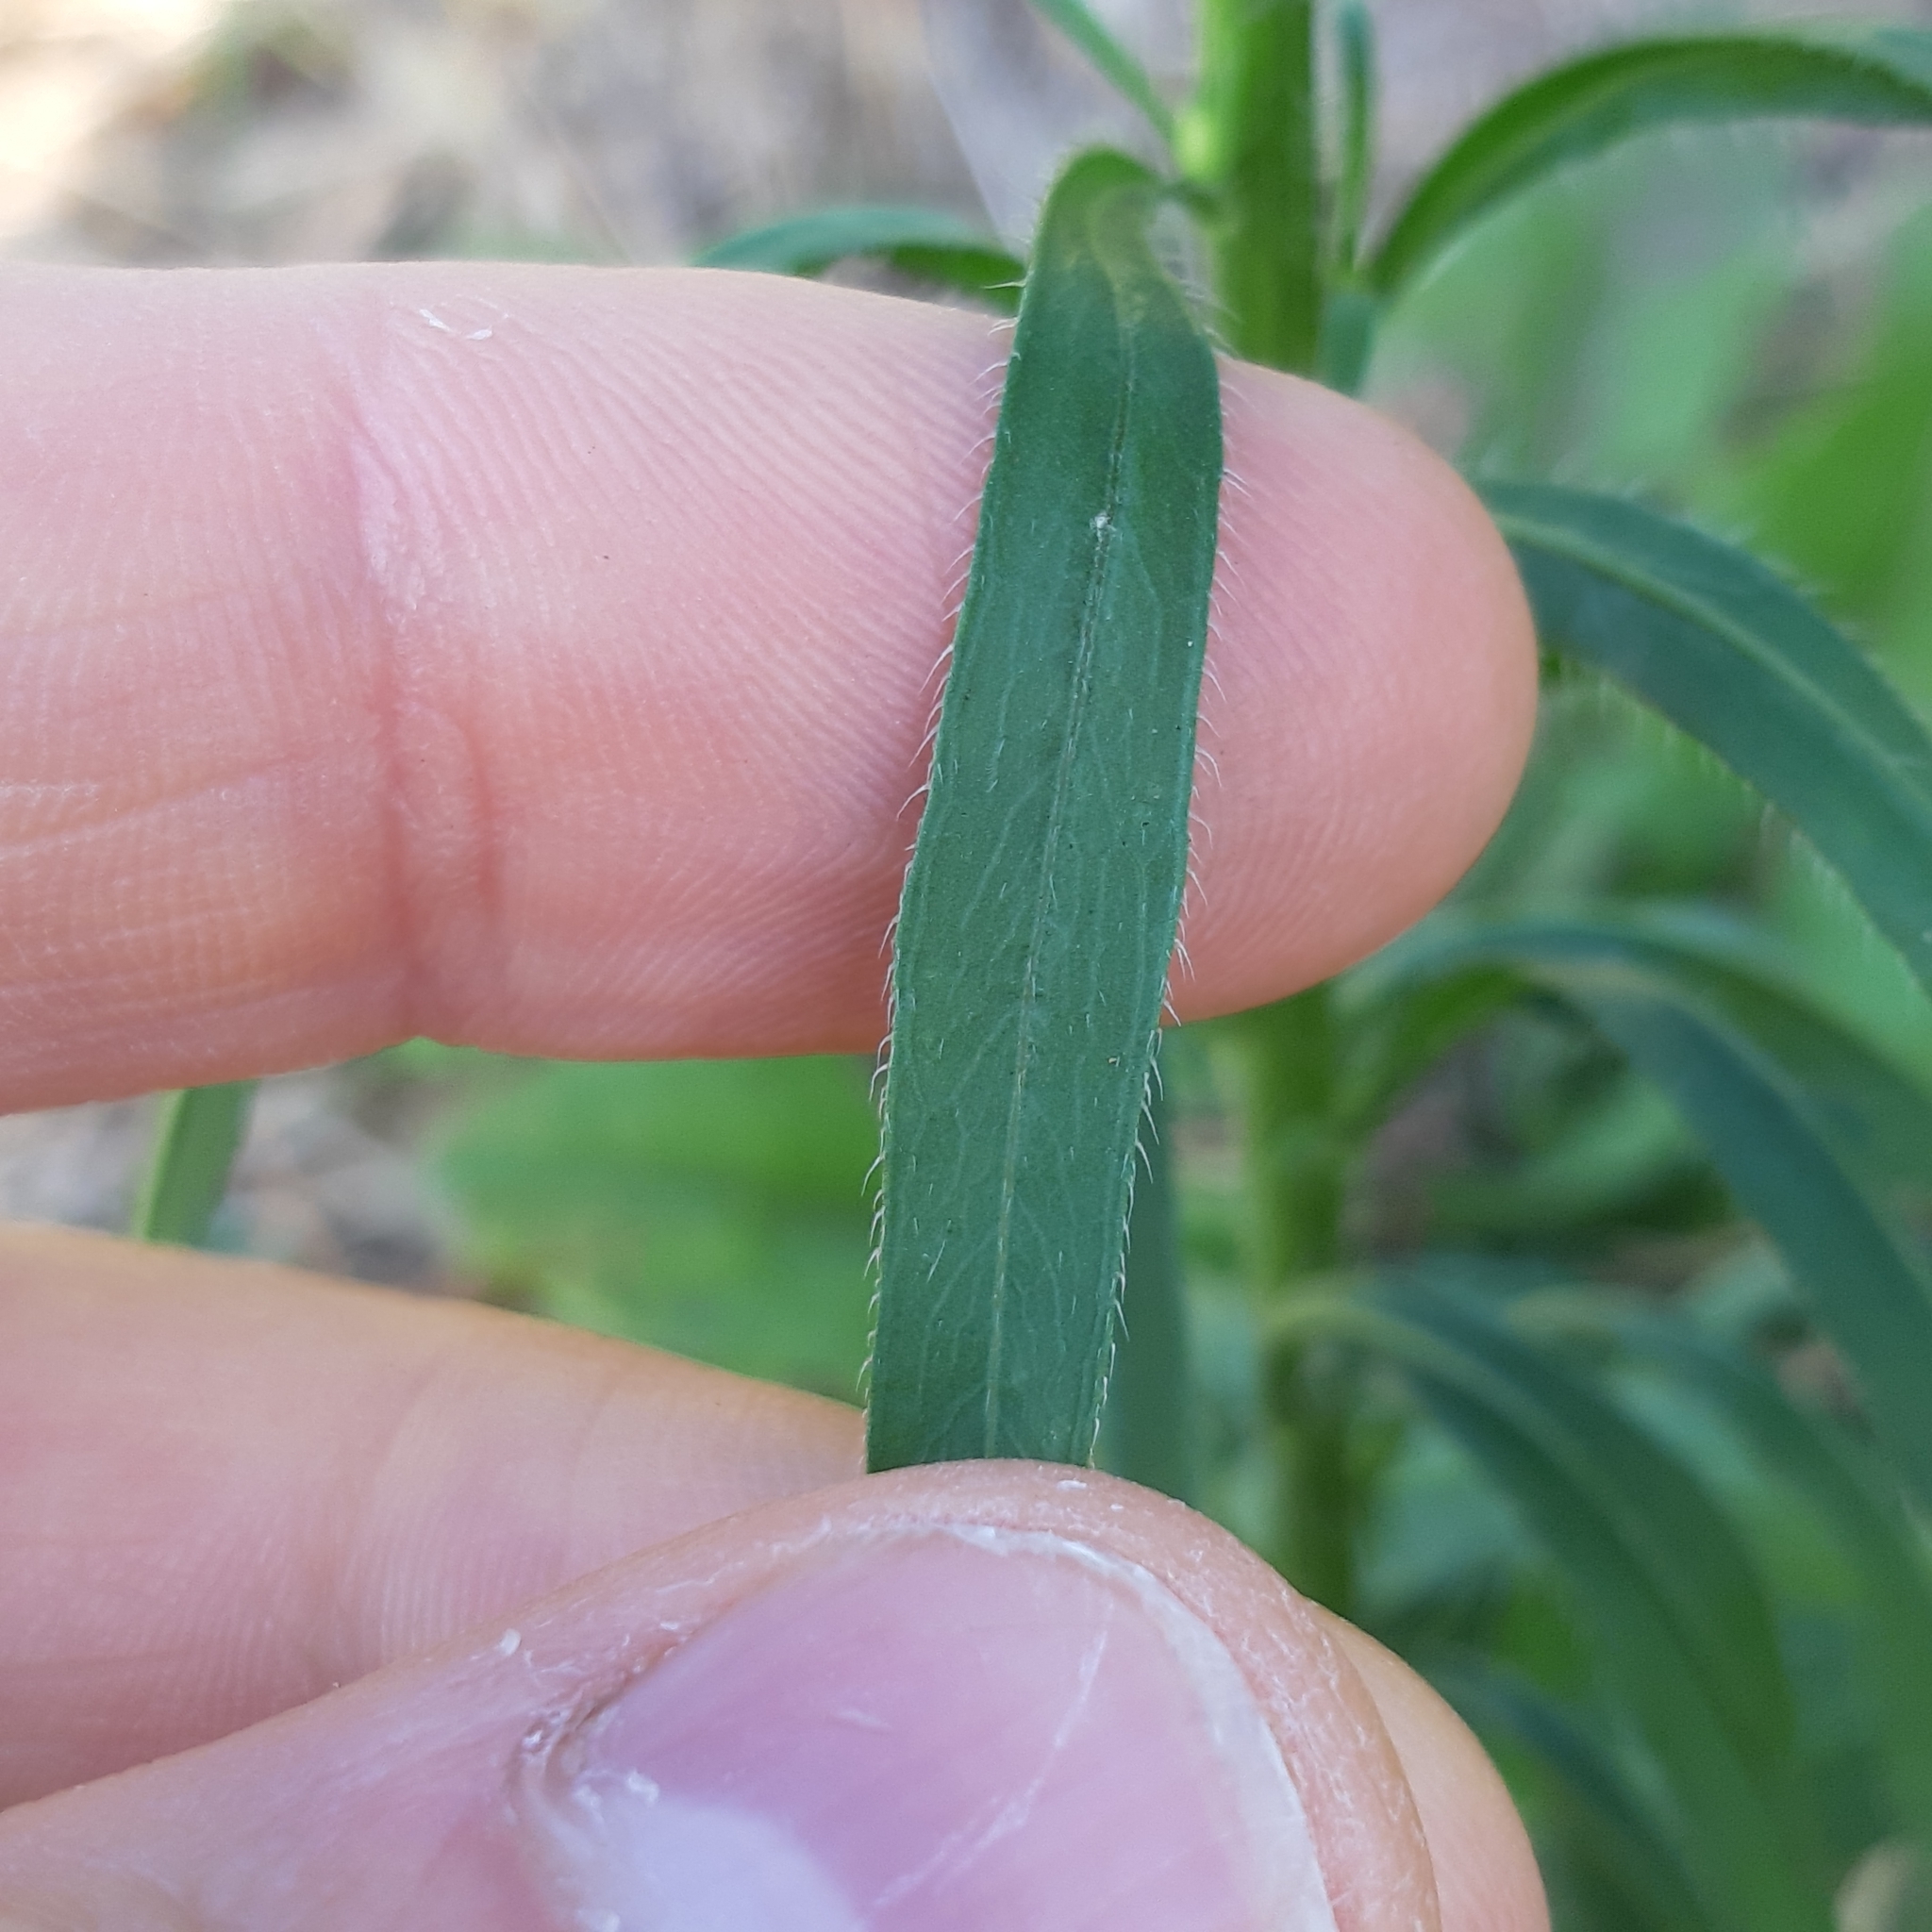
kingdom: Plantae
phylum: Tracheophyta
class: Magnoliopsida
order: Asterales
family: Asteraceae
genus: Erigeron
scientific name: Erigeron canadensis
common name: Canadian fleabane
